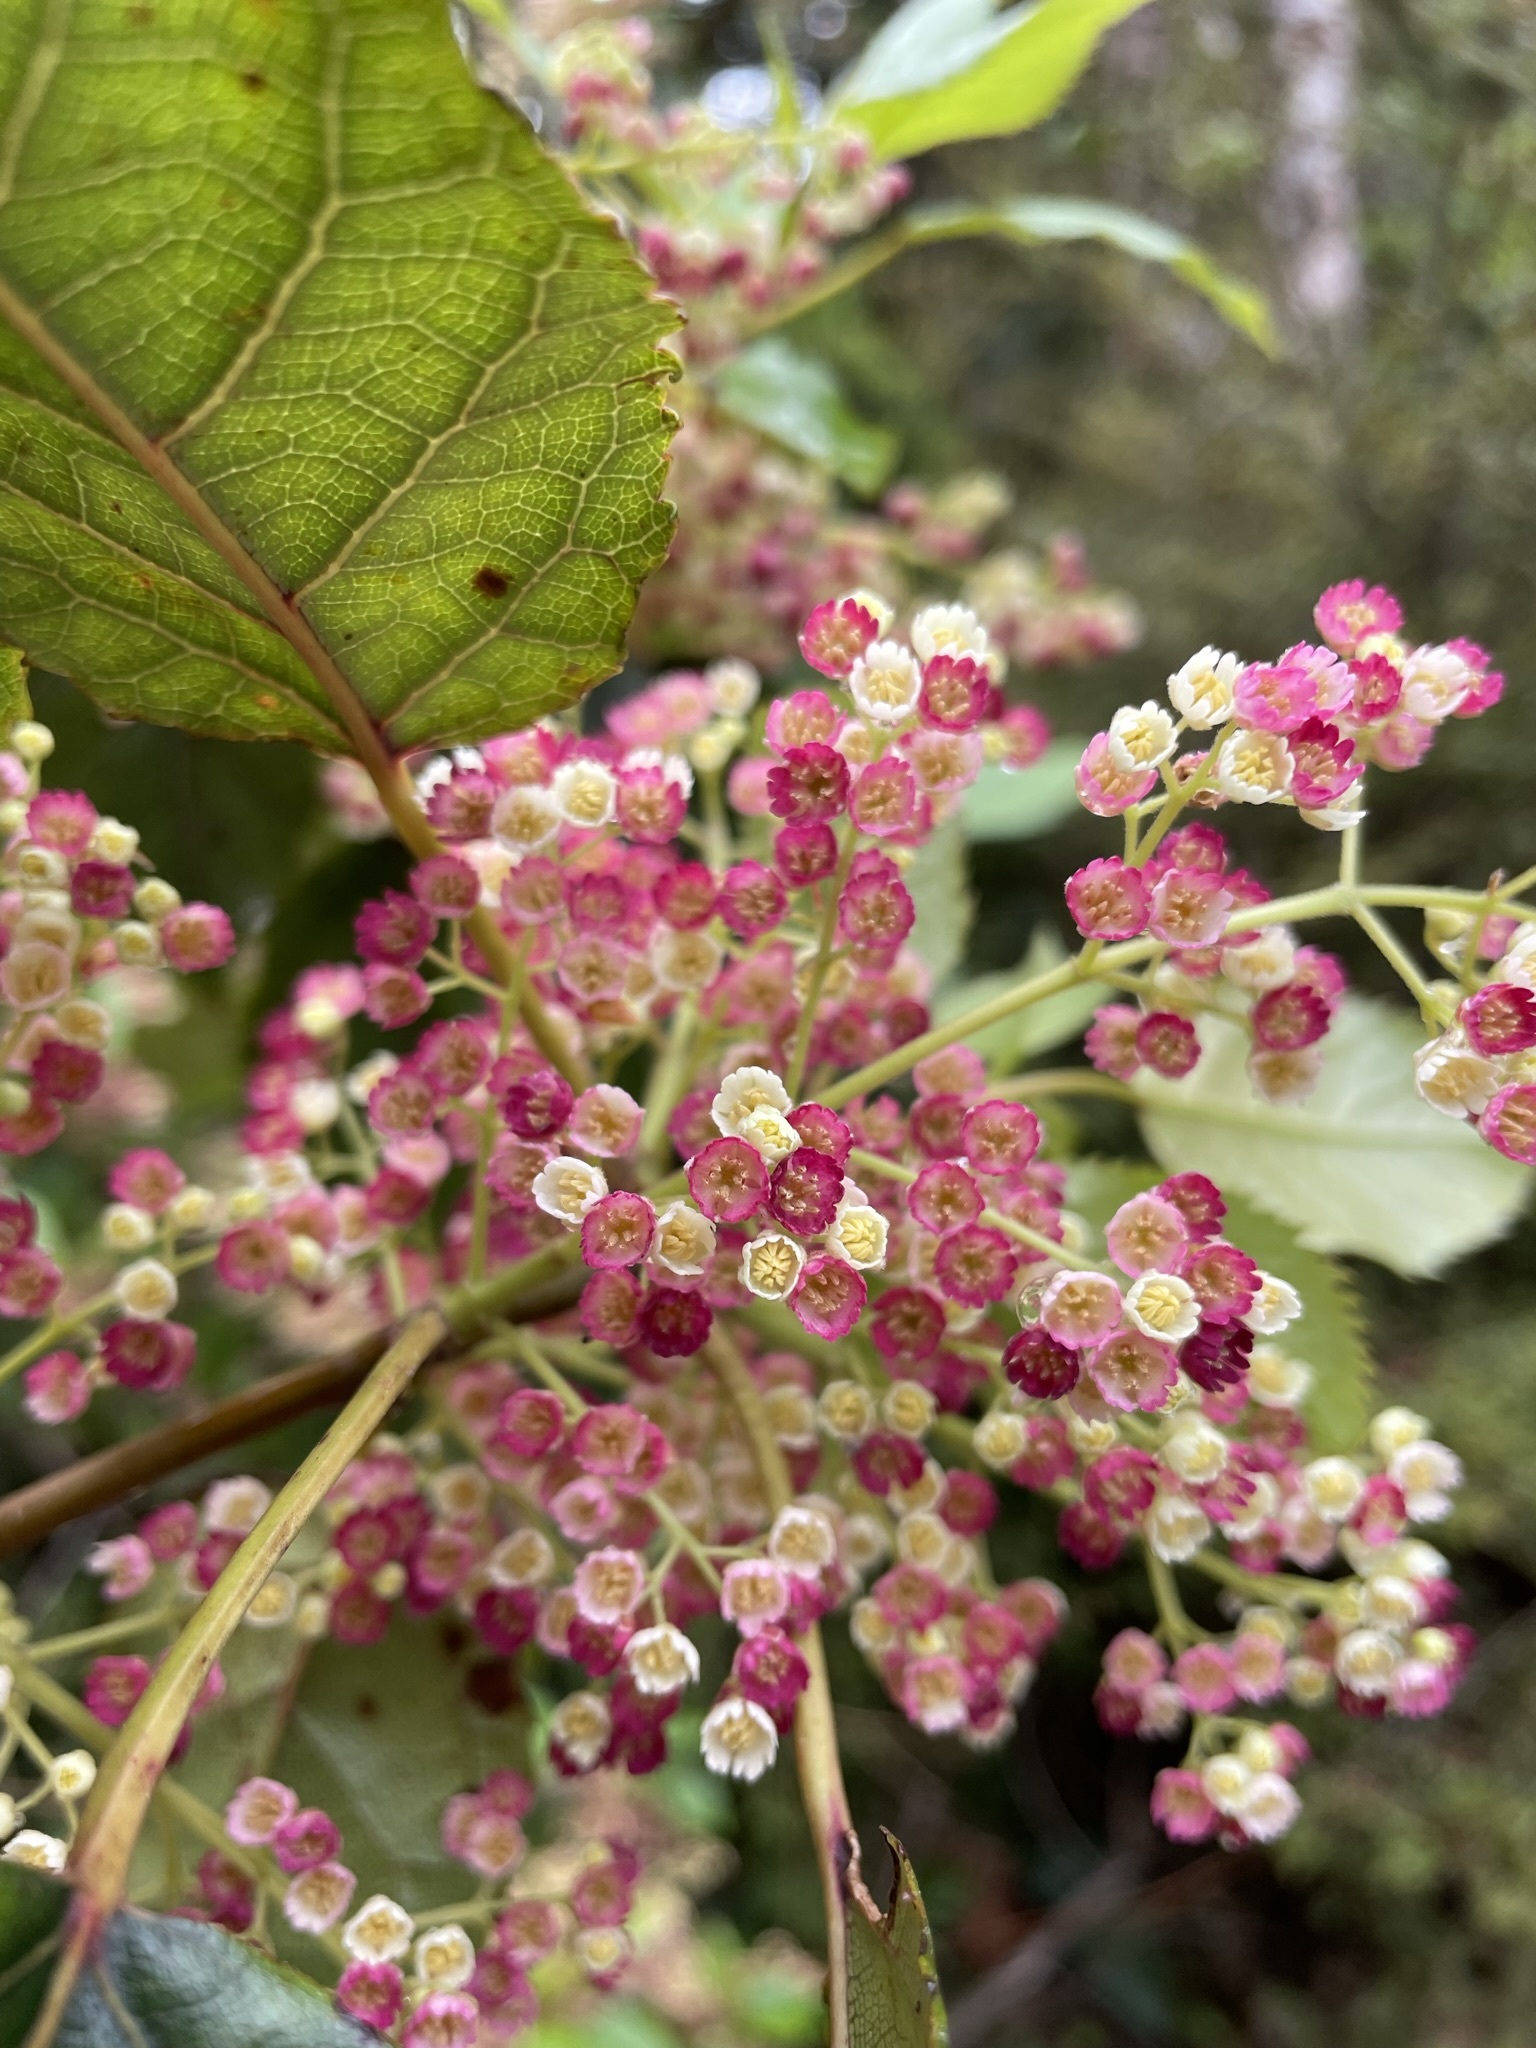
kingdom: Plantae
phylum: Tracheophyta
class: Magnoliopsida
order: Oxalidales
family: Elaeocarpaceae
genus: Aristotelia
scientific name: Aristotelia serrata
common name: New zealand wineberry
